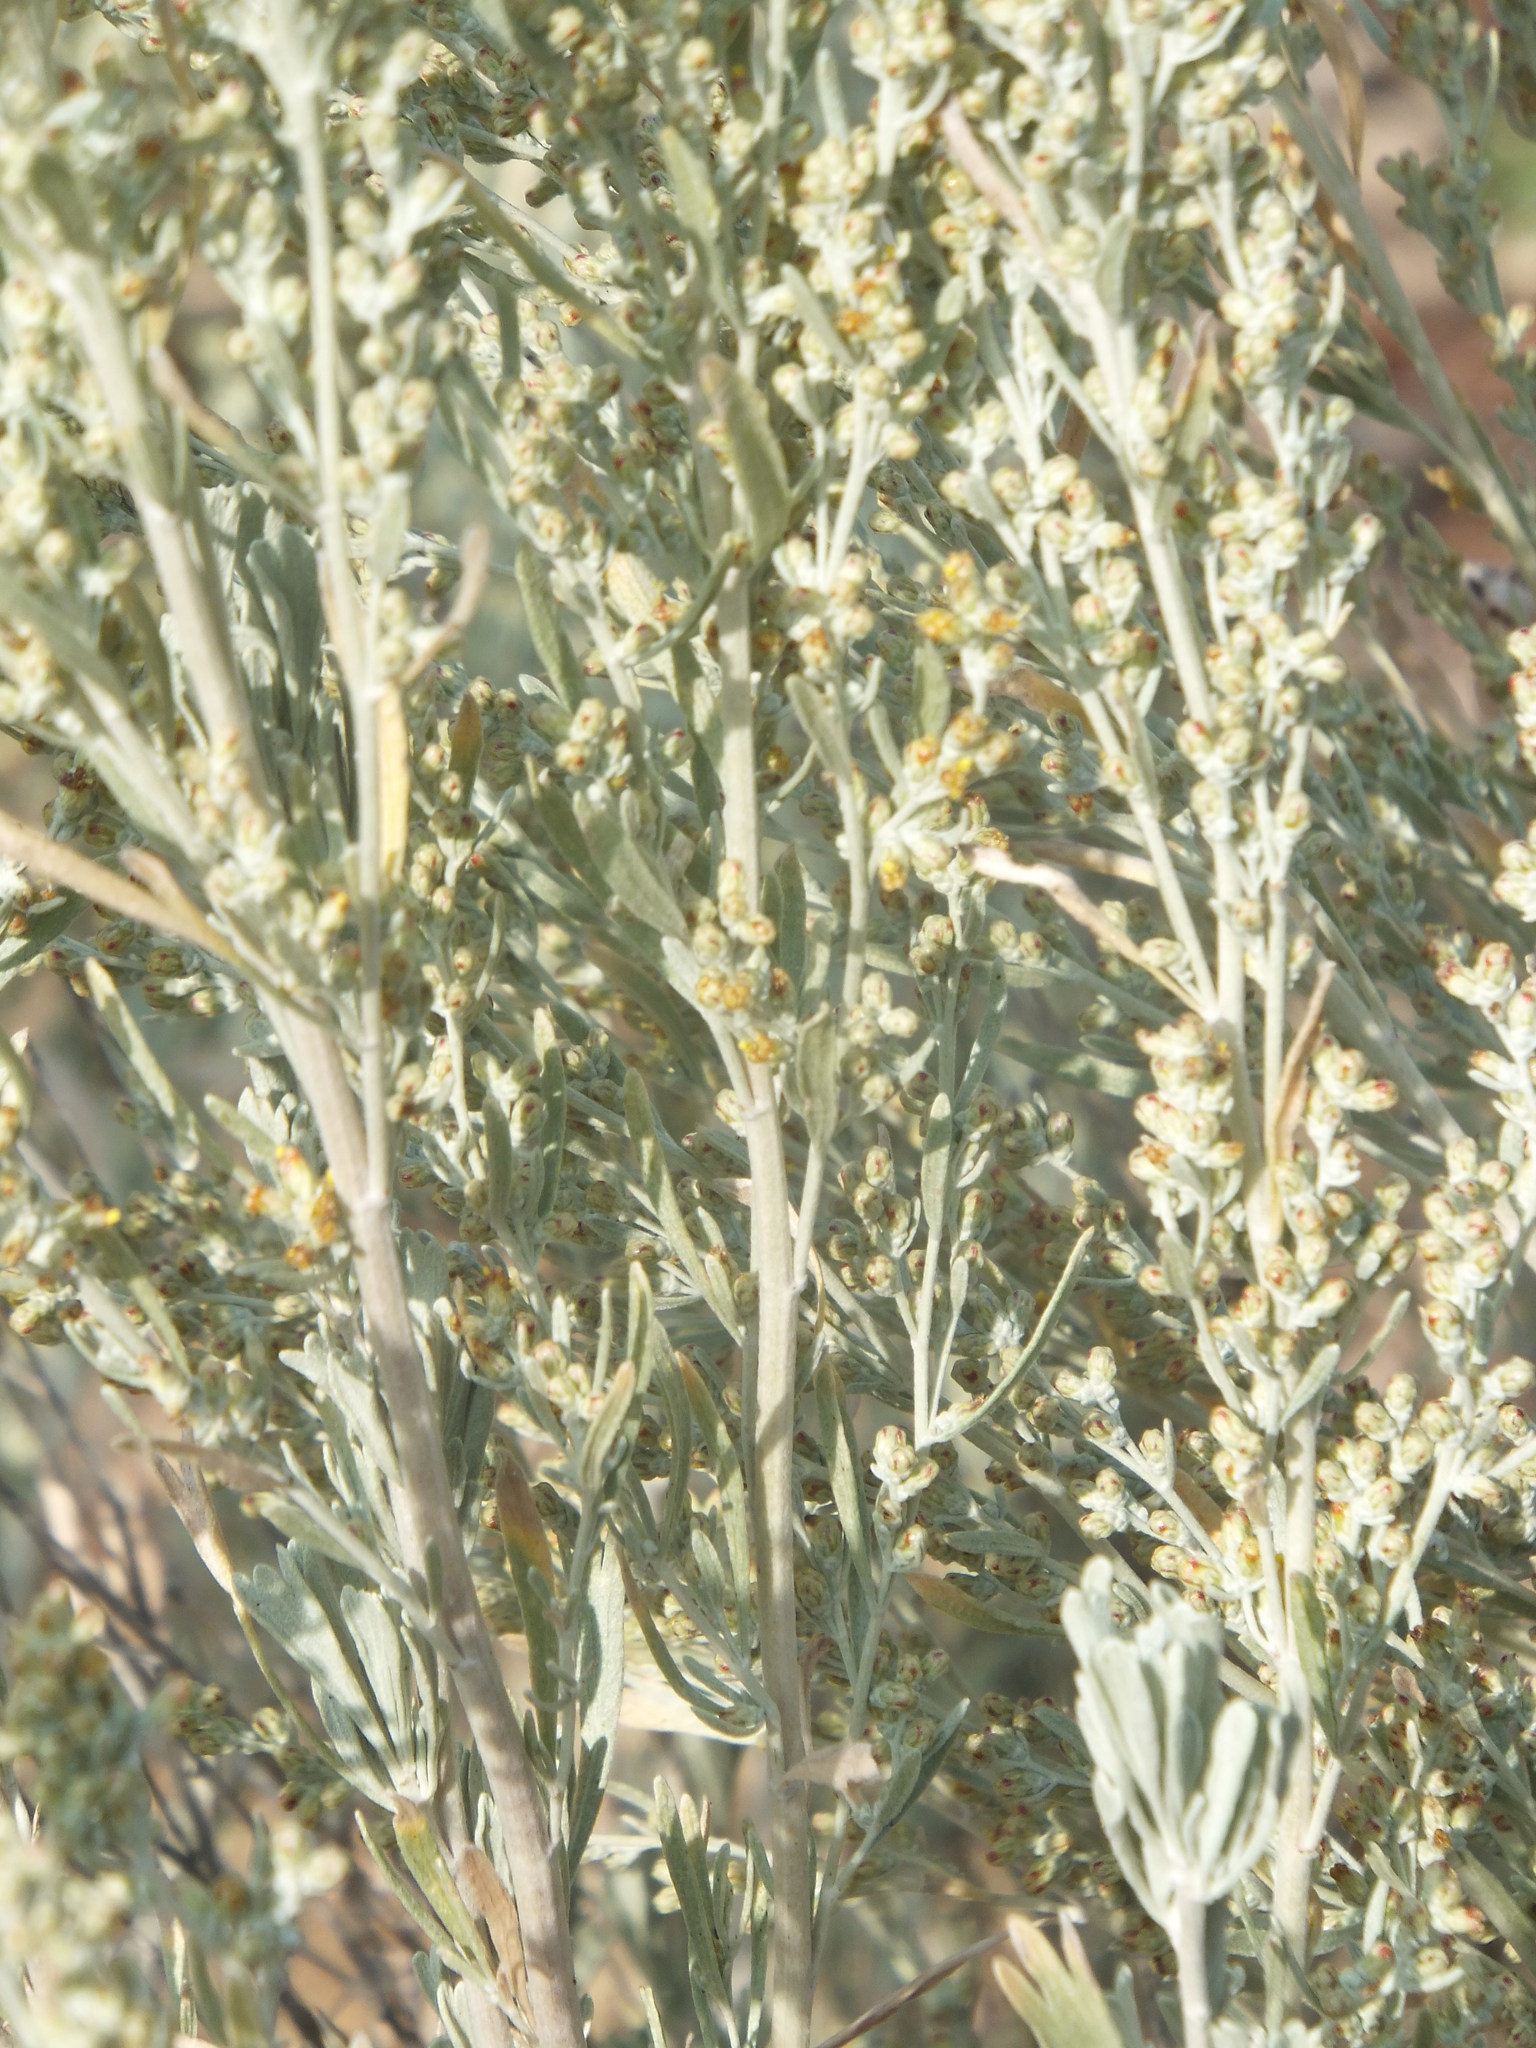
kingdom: Plantae
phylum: Tracheophyta
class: Magnoliopsida
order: Asterales
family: Asteraceae
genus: Artemisia
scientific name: Artemisia tridentata
